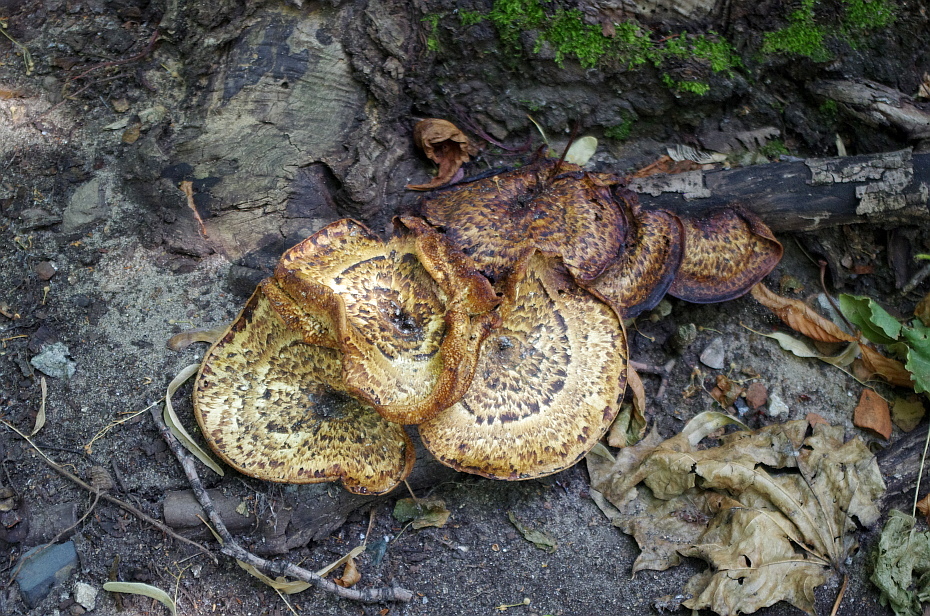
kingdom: Fungi
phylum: Basidiomycota
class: Agaricomycetes
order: Polyporales
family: Polyporaceae
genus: Cerioporus
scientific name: Cerioporus squamosus
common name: Dryad's saddle
